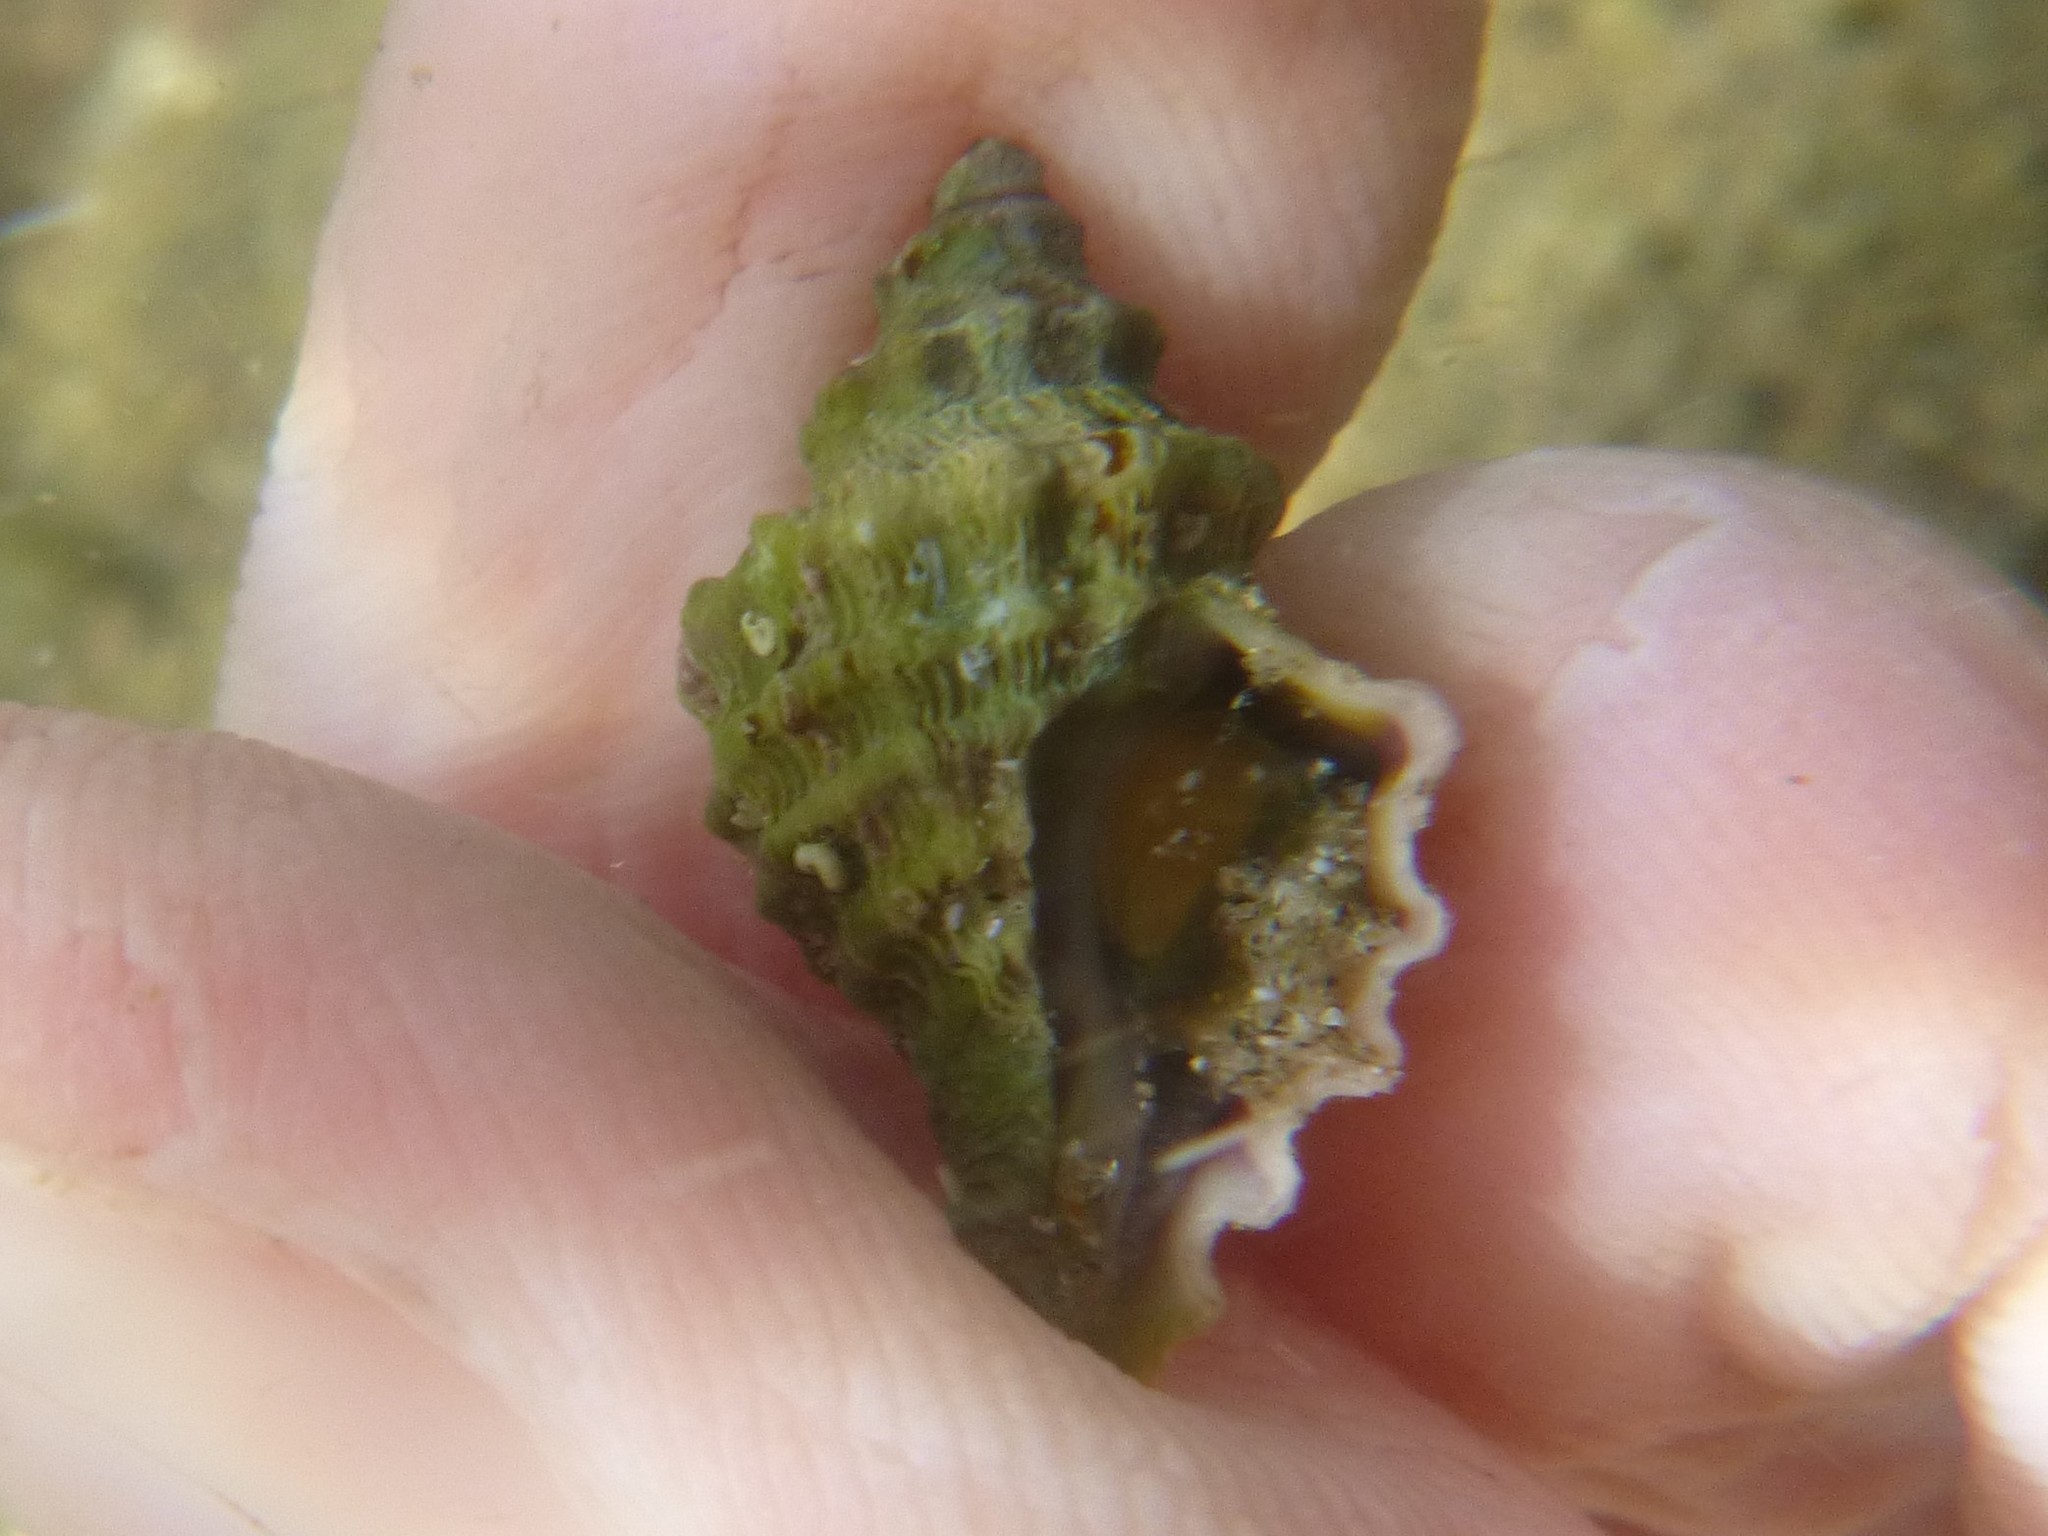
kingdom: Animalia
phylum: Mollusca
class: Gastropoda
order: Neogastropoda
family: Muricidae
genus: Paratrophon
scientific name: Paratrophon quoyi
